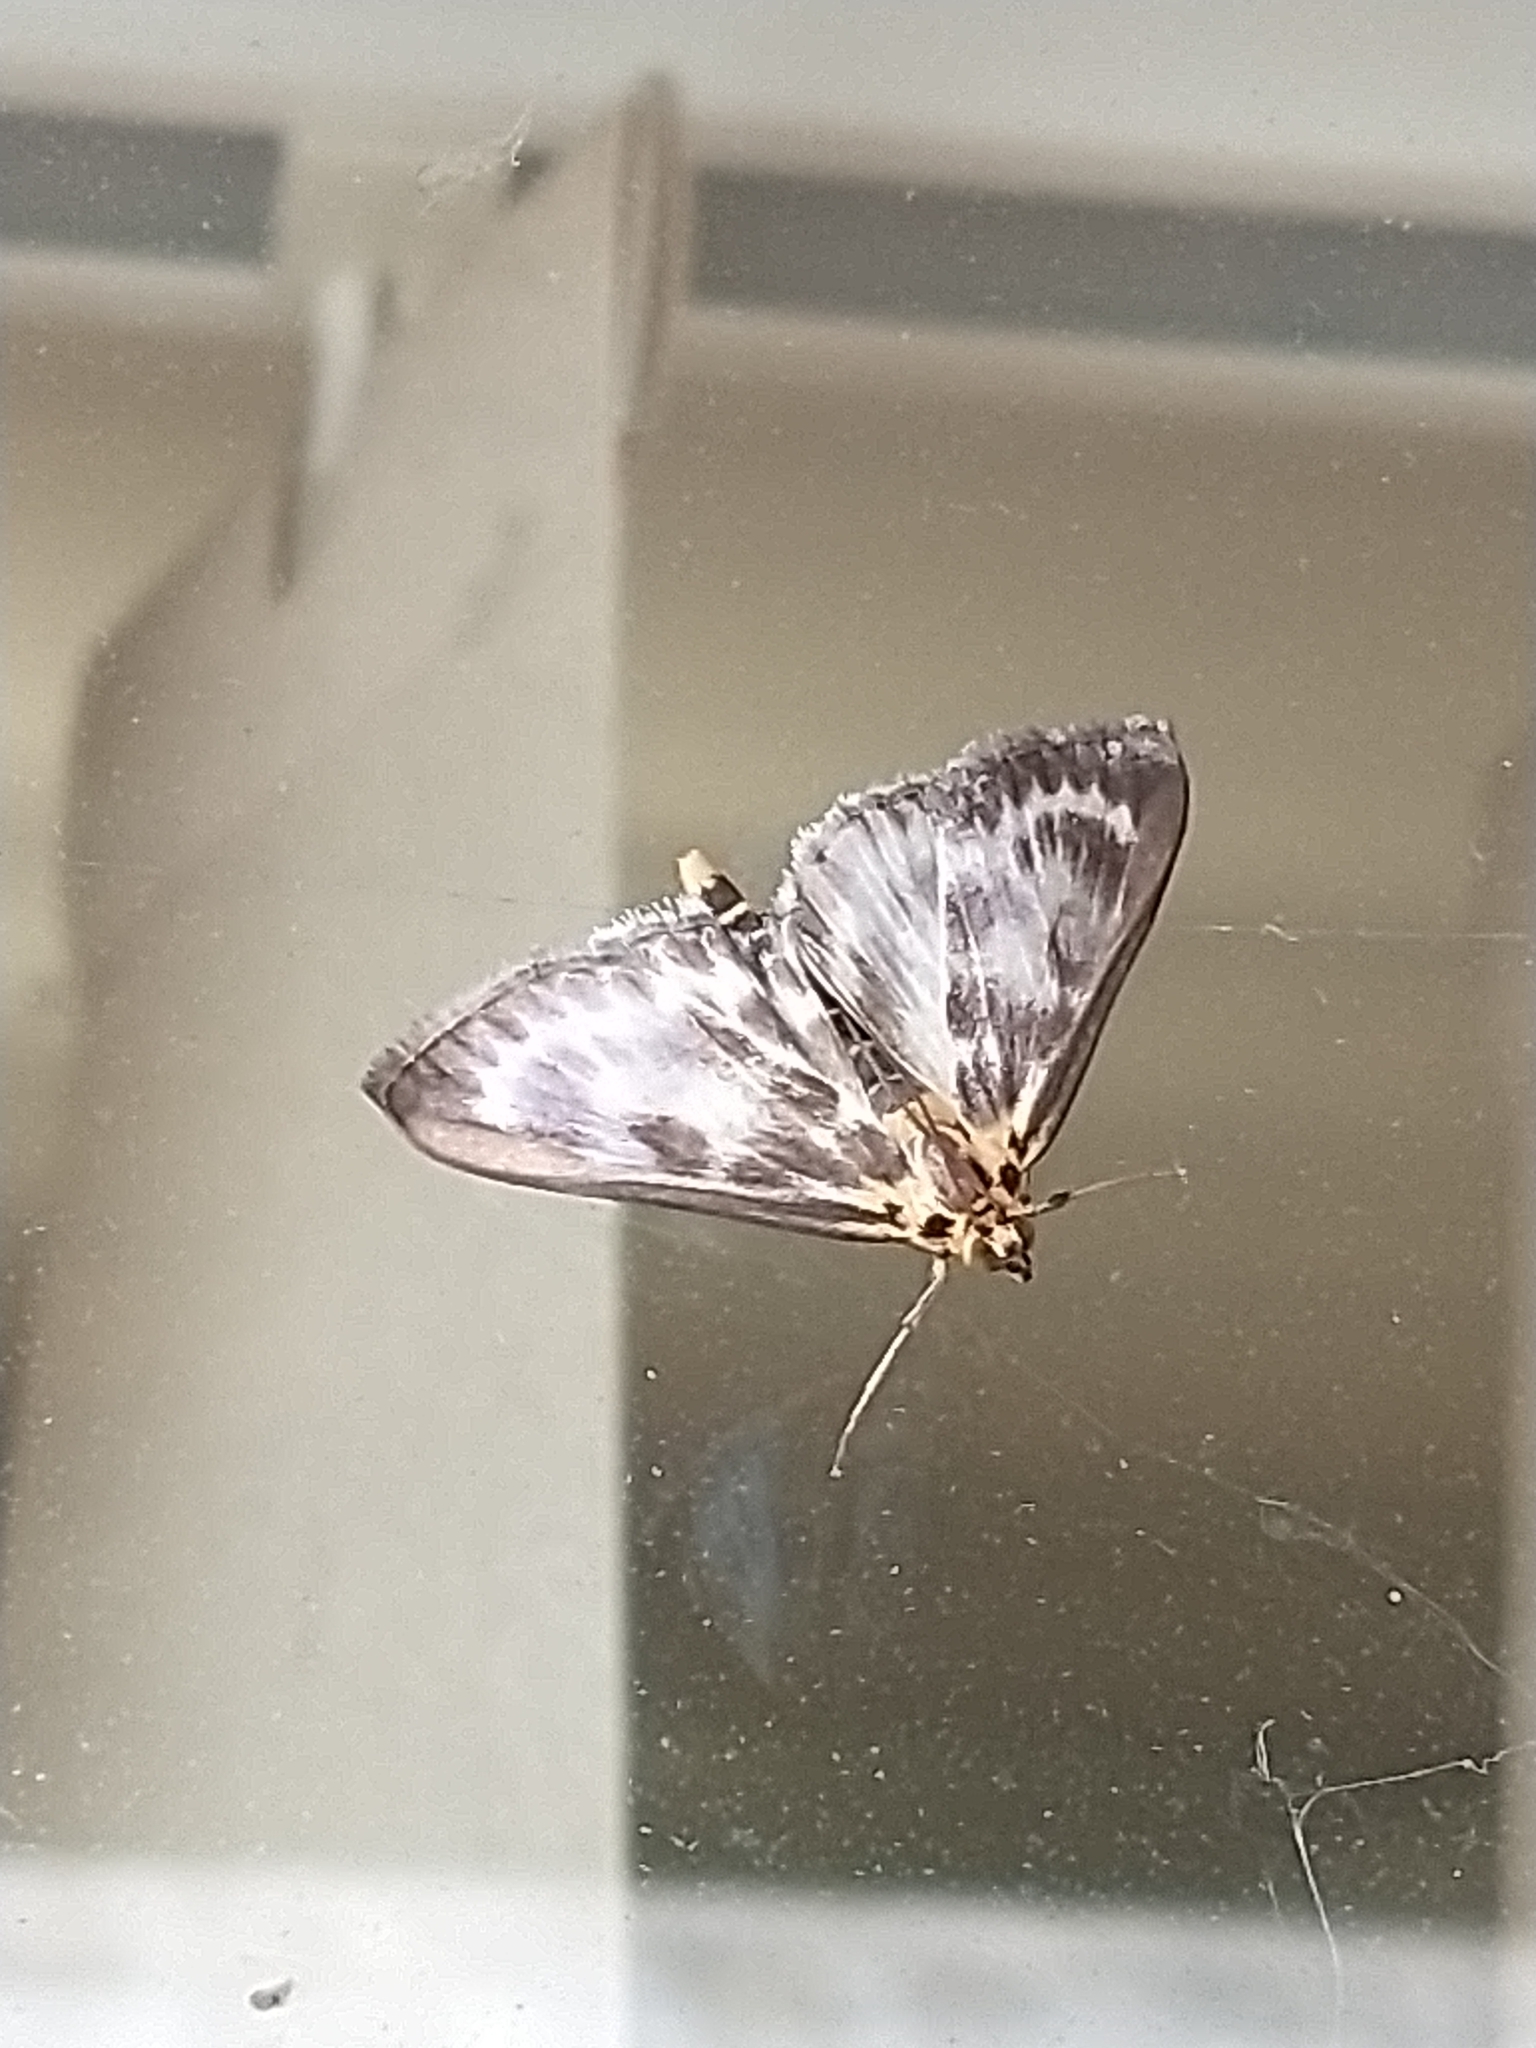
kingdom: Animalia
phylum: Arthropoda
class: Insecta
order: Lepidoptera
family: Crambidae
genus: Anania
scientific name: Anania hortulata
